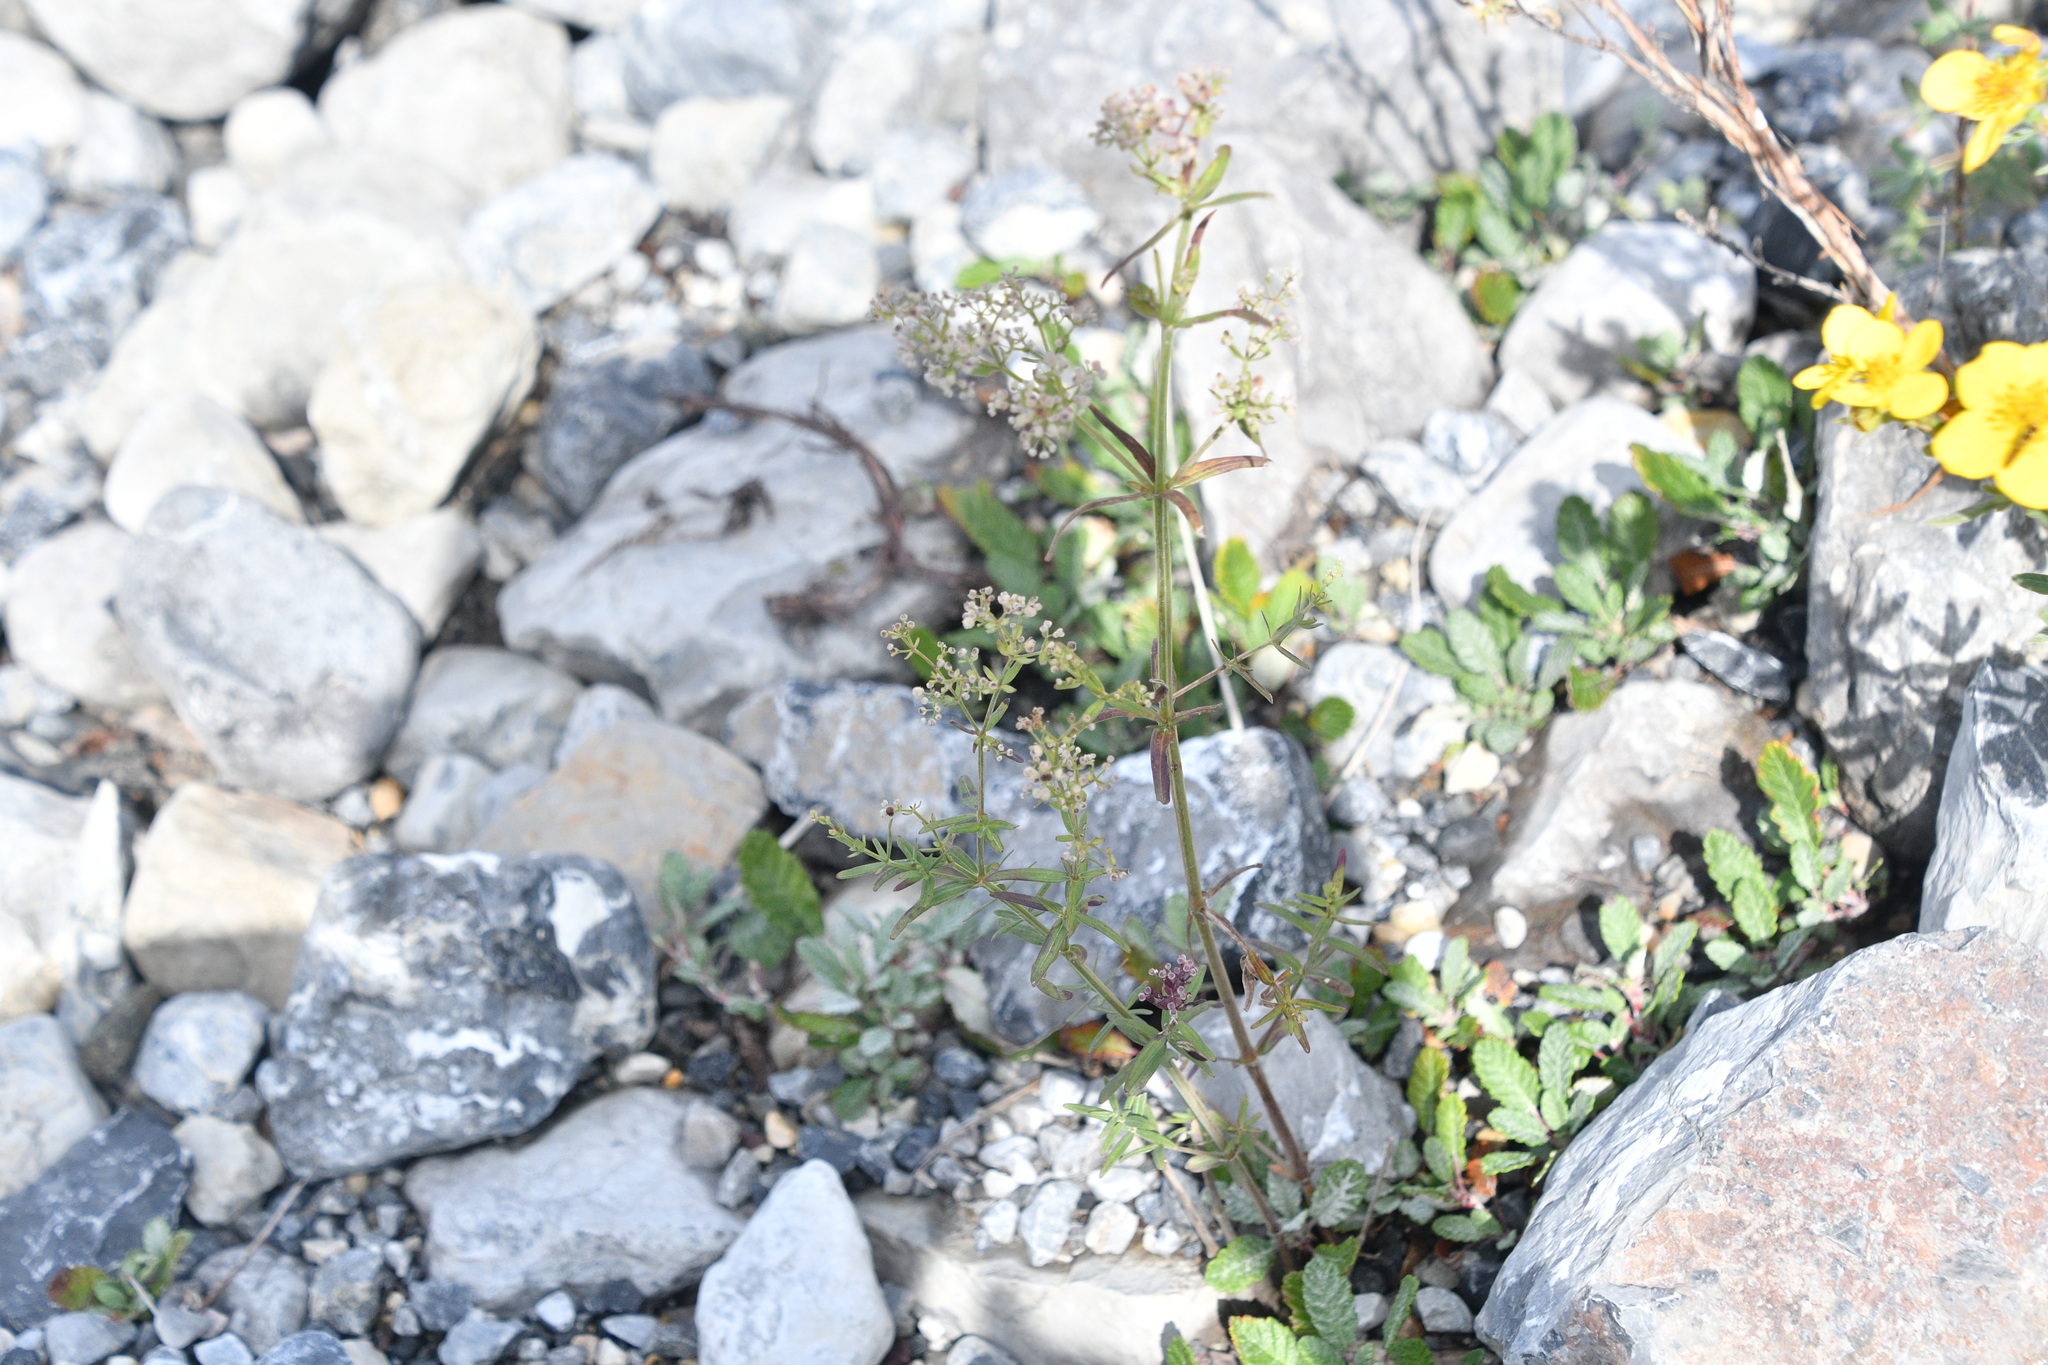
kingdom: Plantae
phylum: Tracheophyta
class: Magnoliopsida
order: Gentianales
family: Rubiaceae
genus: Galium
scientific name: Galium boreale
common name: Northern bedstraw
